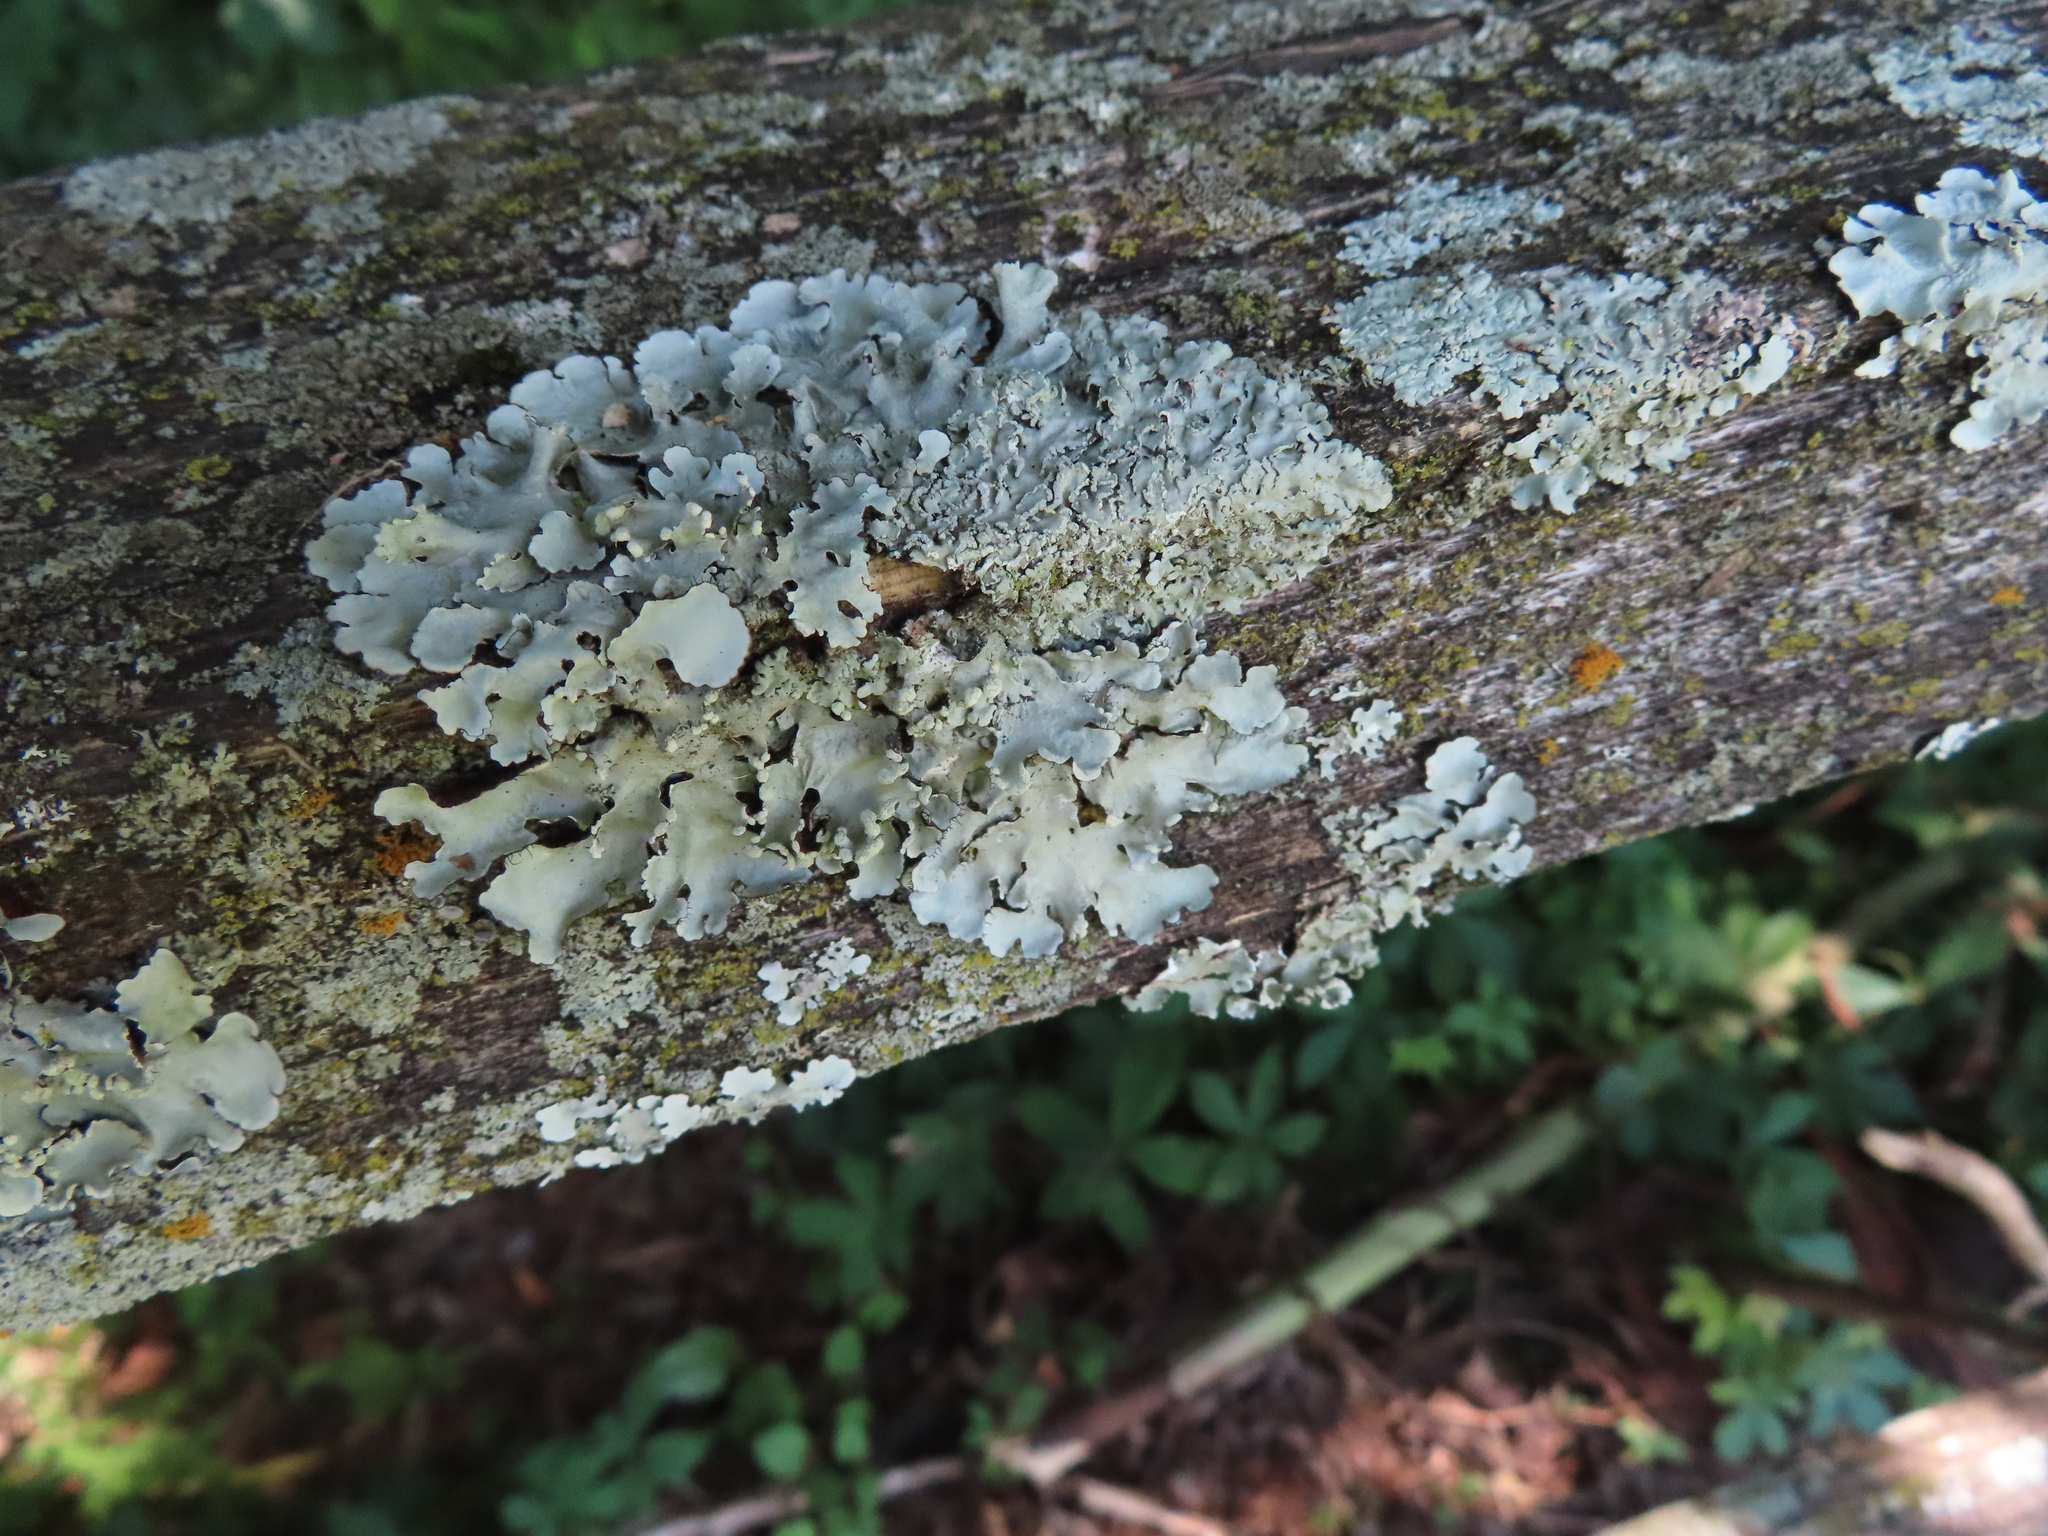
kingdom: Fungi
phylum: Ascomycota
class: Lecanoromycetes
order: Lecanorales
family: Parmeliaceae
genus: Parmotrema
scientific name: Parmotrema reticulatum
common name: Black sheet lichen
